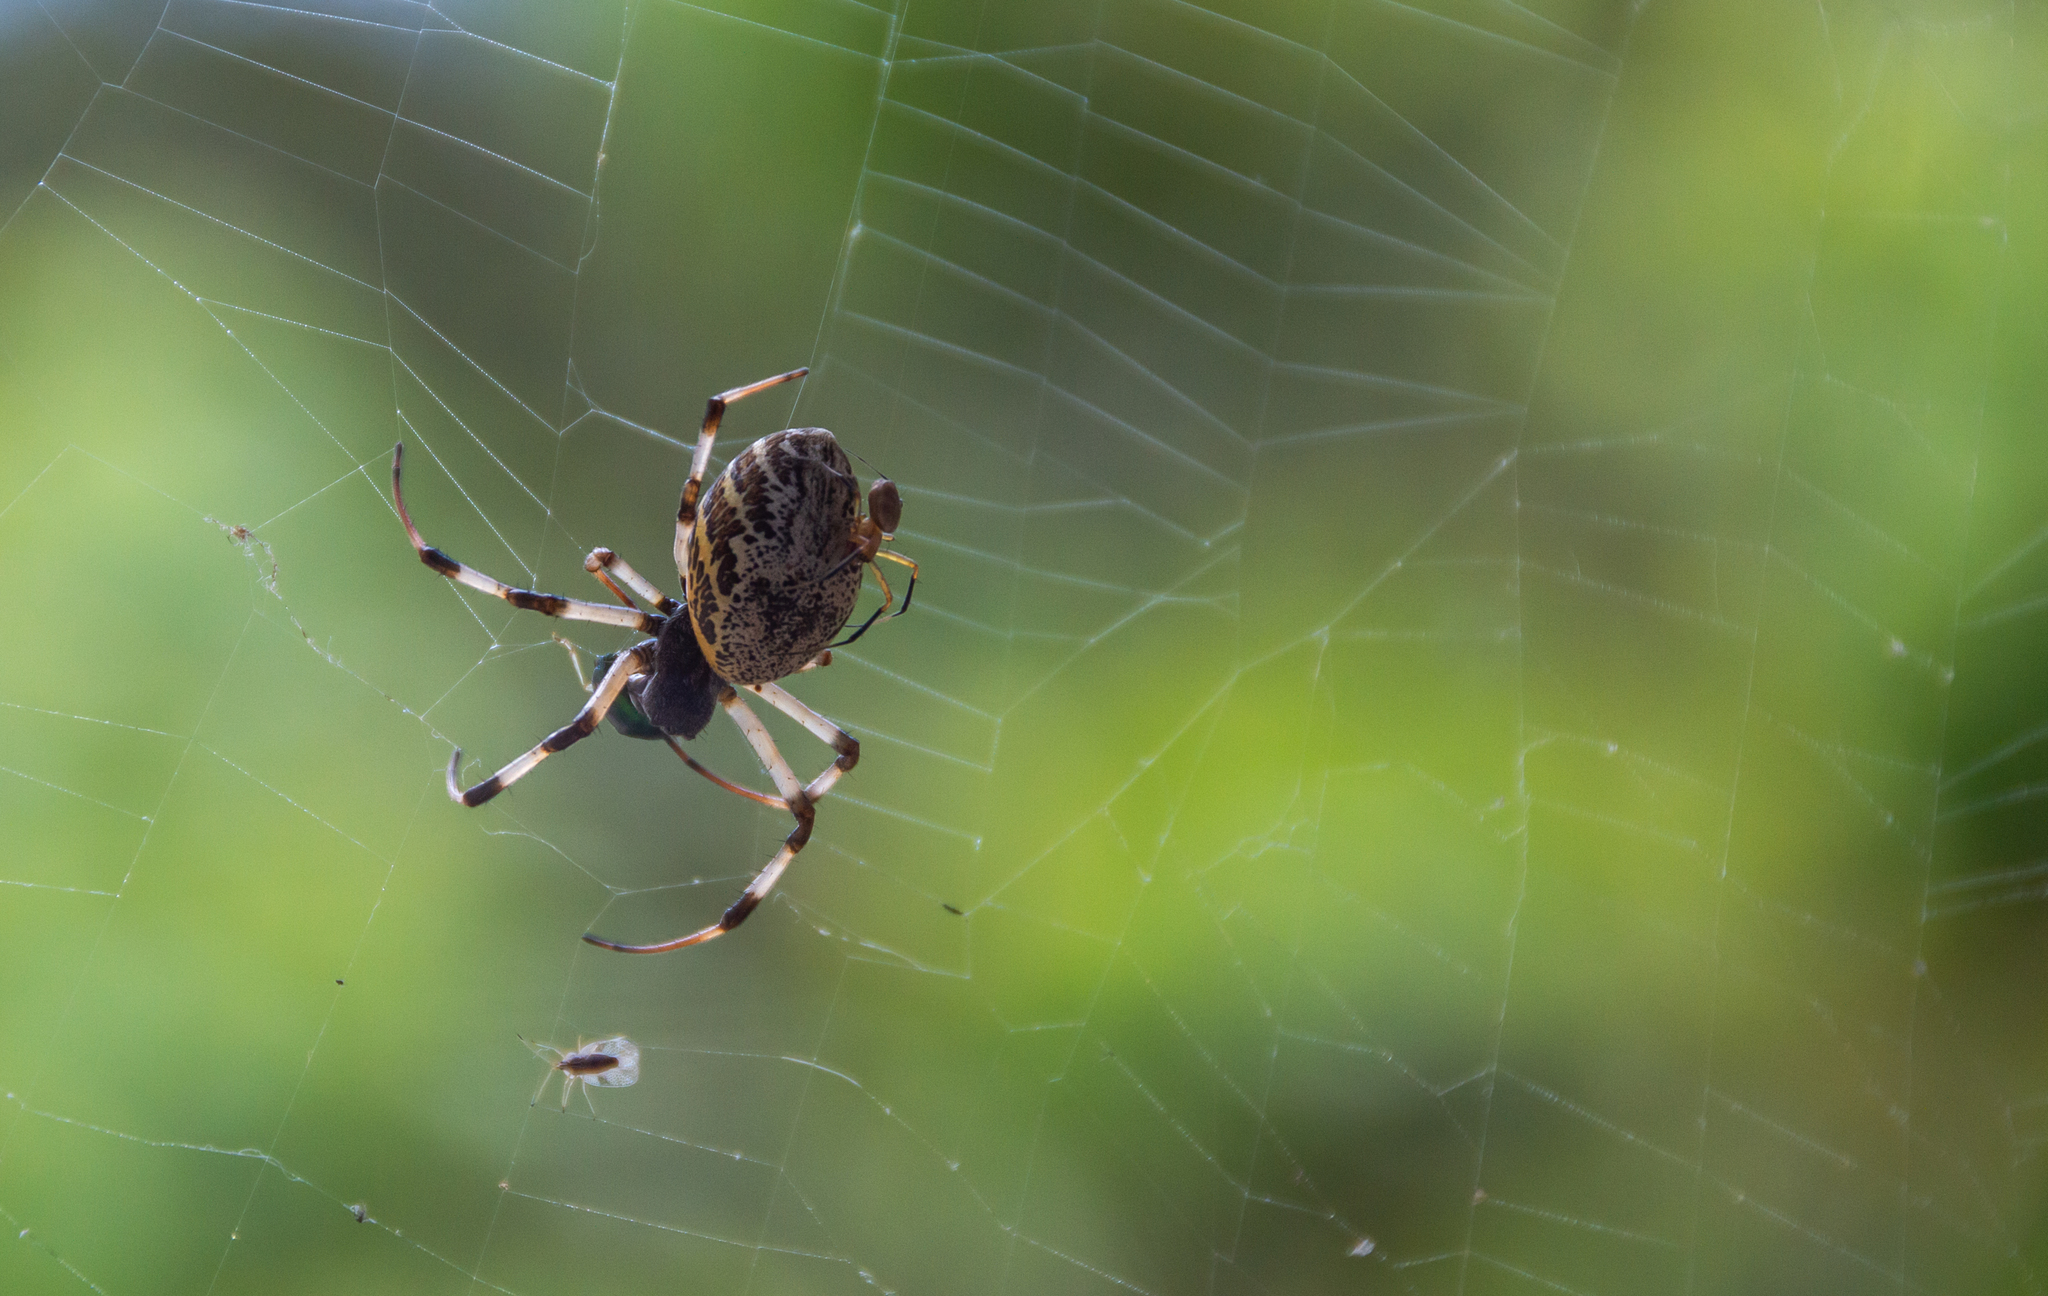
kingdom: Animalia
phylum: Arthropoda
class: Arachnida
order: Araneae
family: Araneidae
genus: Nephilingis
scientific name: Nephilingis cruentata
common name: African hermit spider
